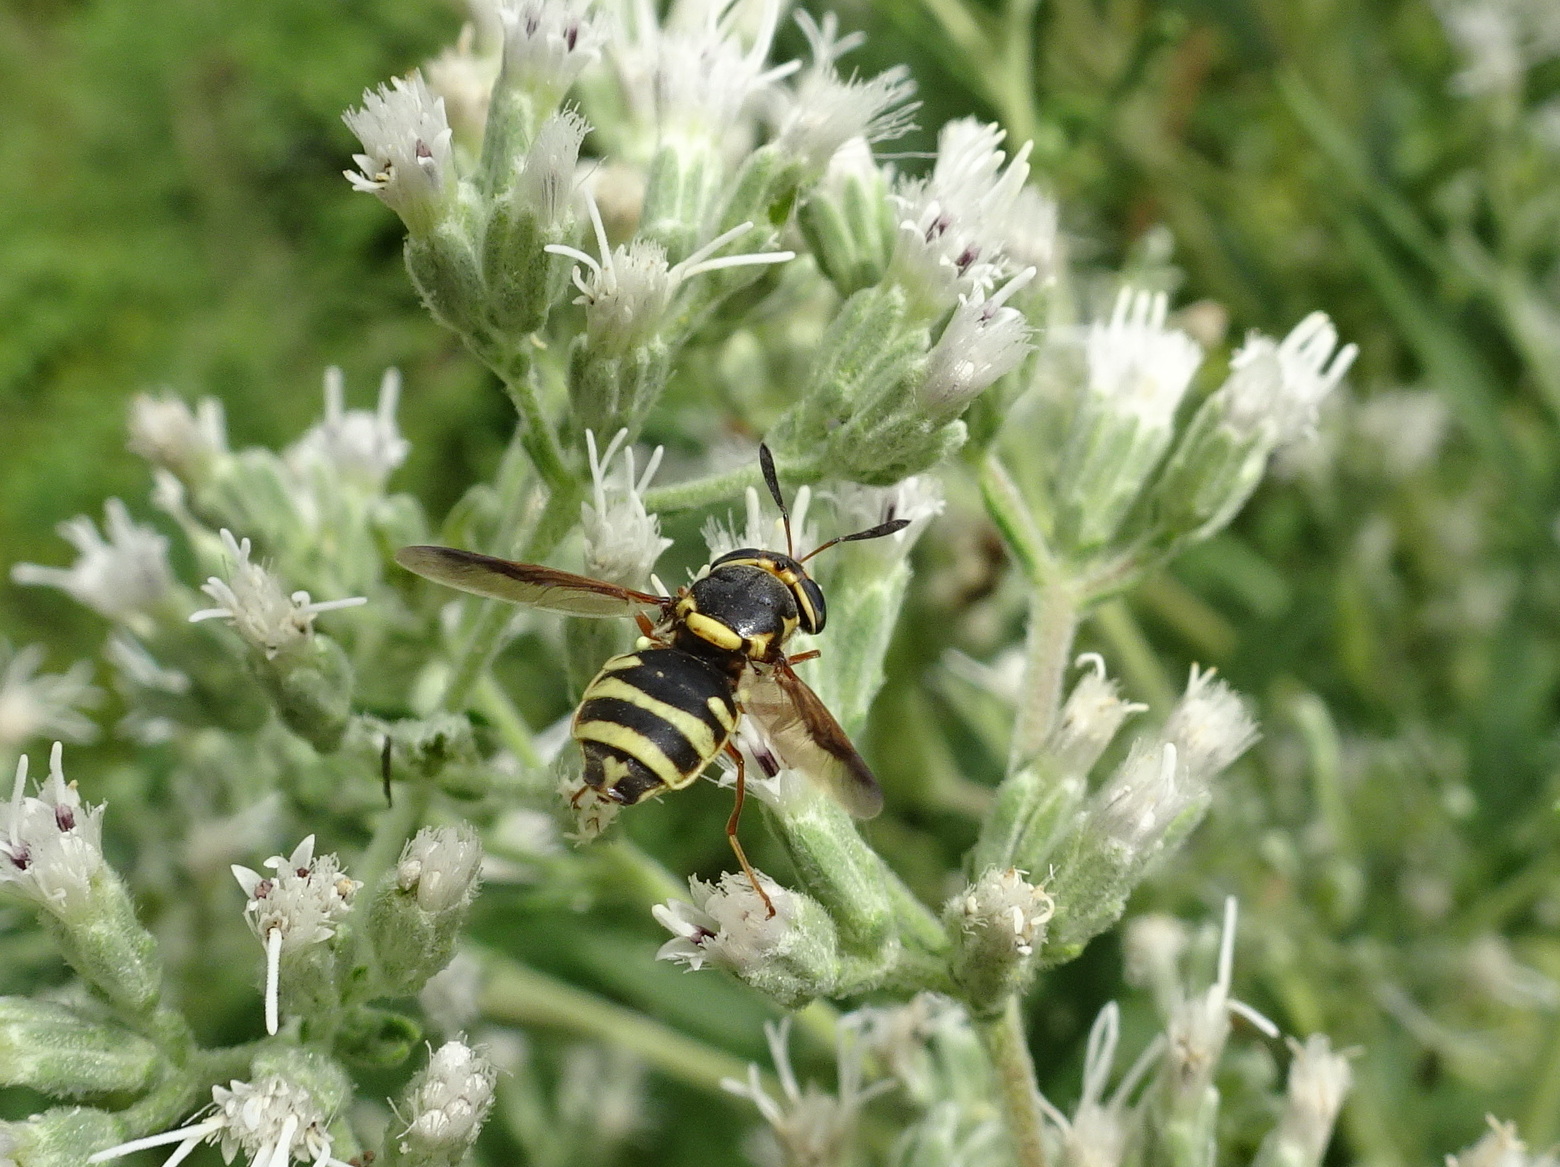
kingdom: Animalia
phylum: Arthropoda
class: Insecta
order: Diptera
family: Stratiomyidae
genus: Hoplitimyia
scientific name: Hoplitimyia constans
